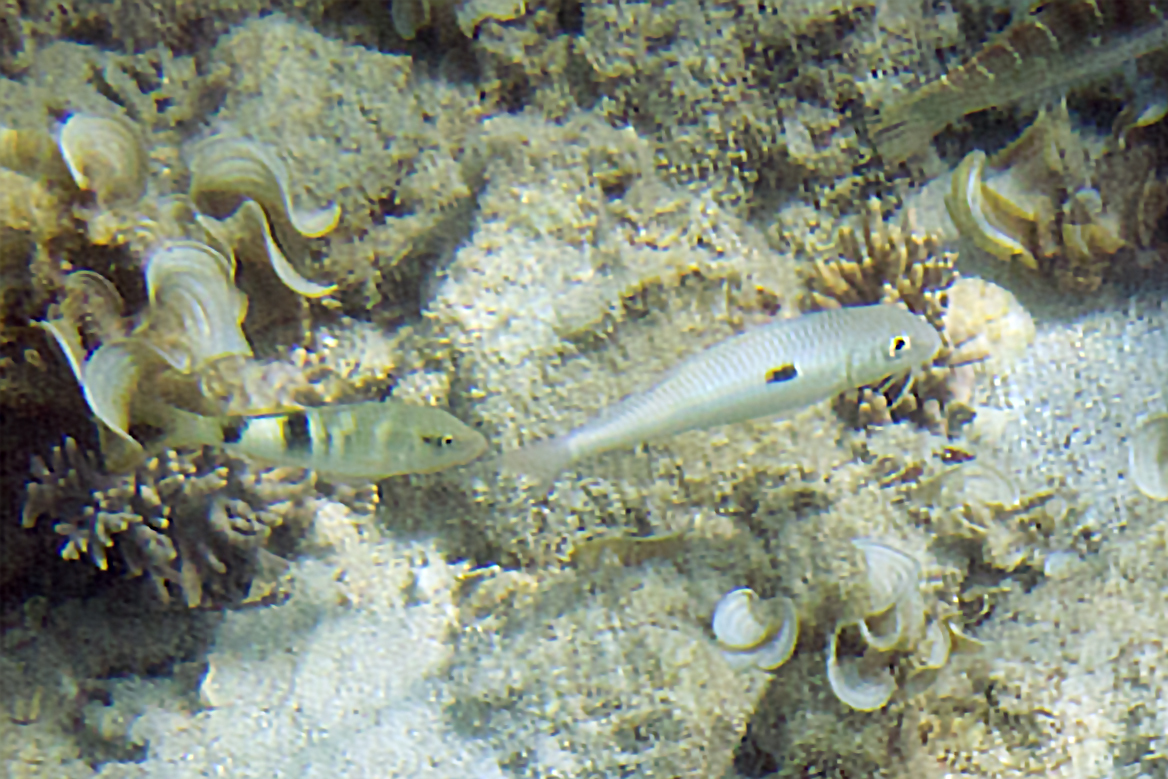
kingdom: Animalia
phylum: Chordata
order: Perciformes
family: Mullidae
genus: Parupeneus
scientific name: Parupeneus multifasciatus
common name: Manybar goatfish
